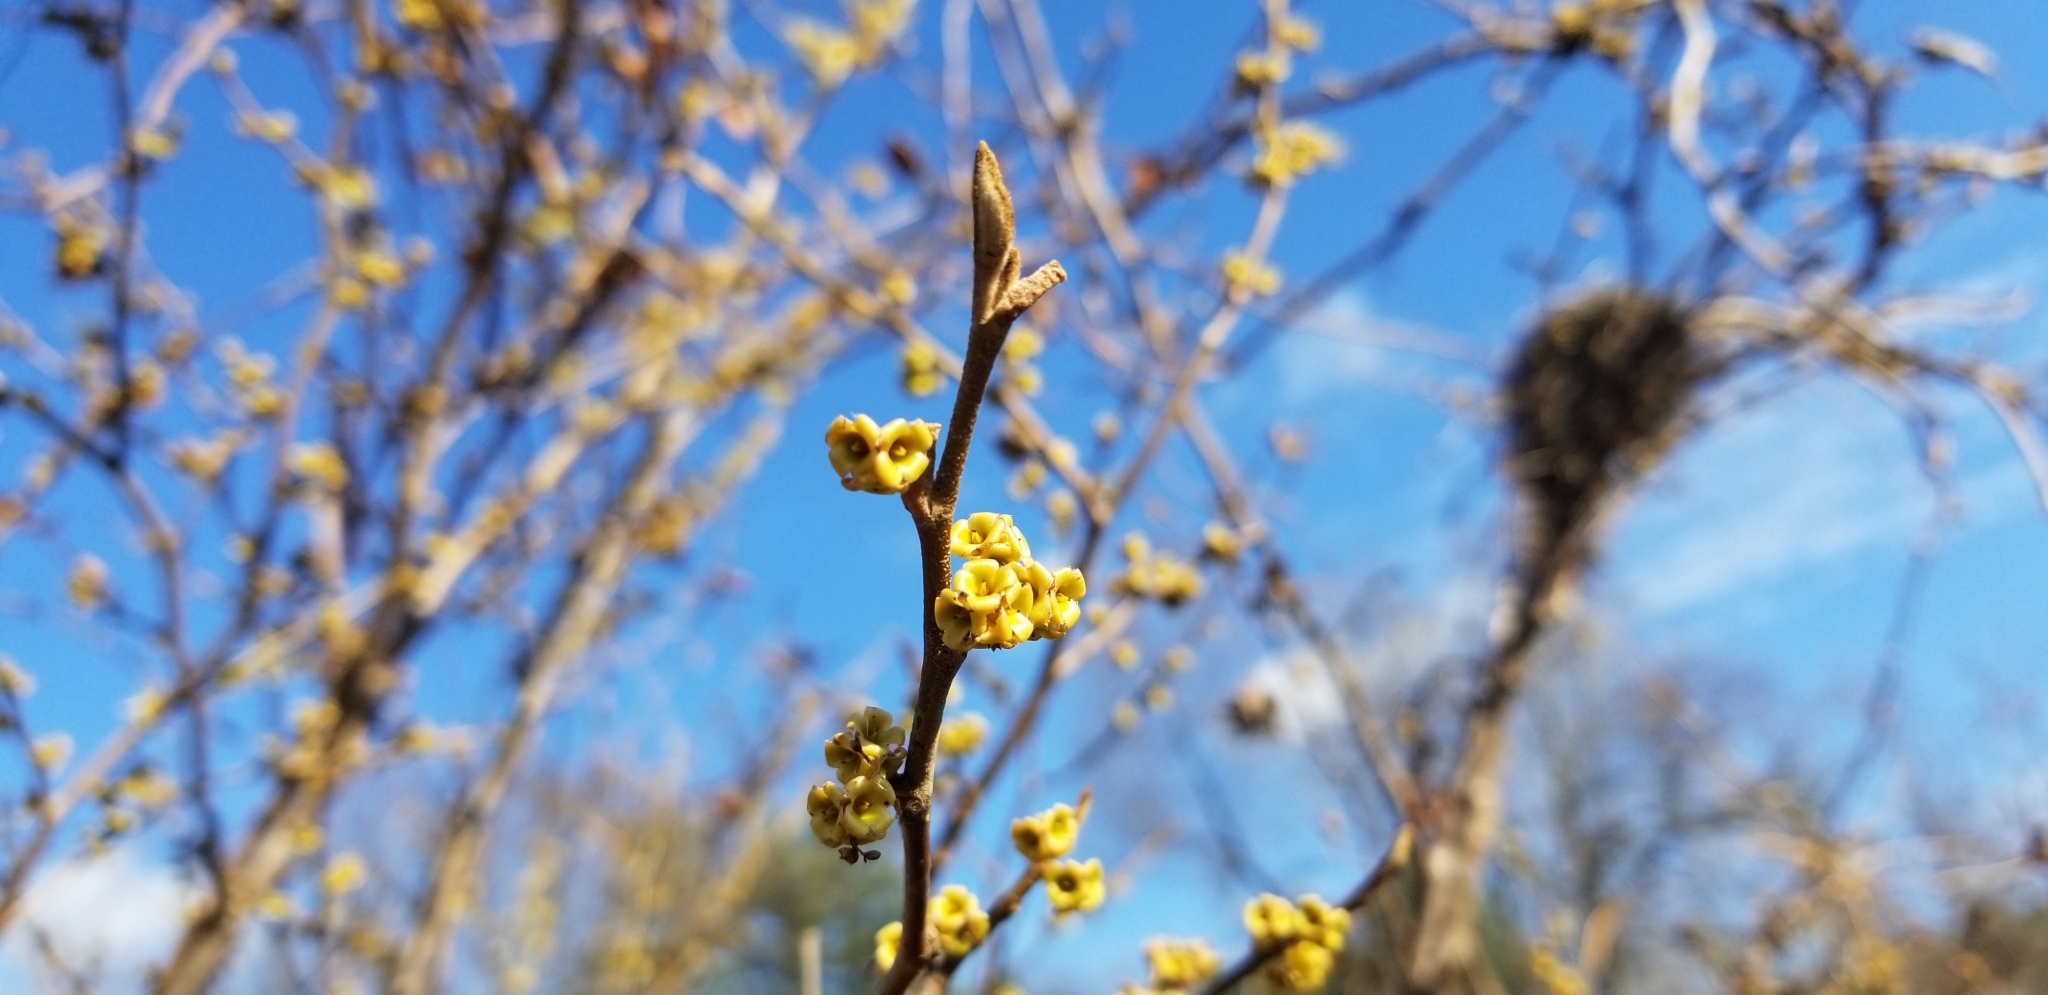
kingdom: Plantae
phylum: Tracheophyta
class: Magnoliopsida
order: Saxifragales
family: Hamamelidaceae
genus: Hamamelis
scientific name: Hamamelis virginiana
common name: Witch-hazel
